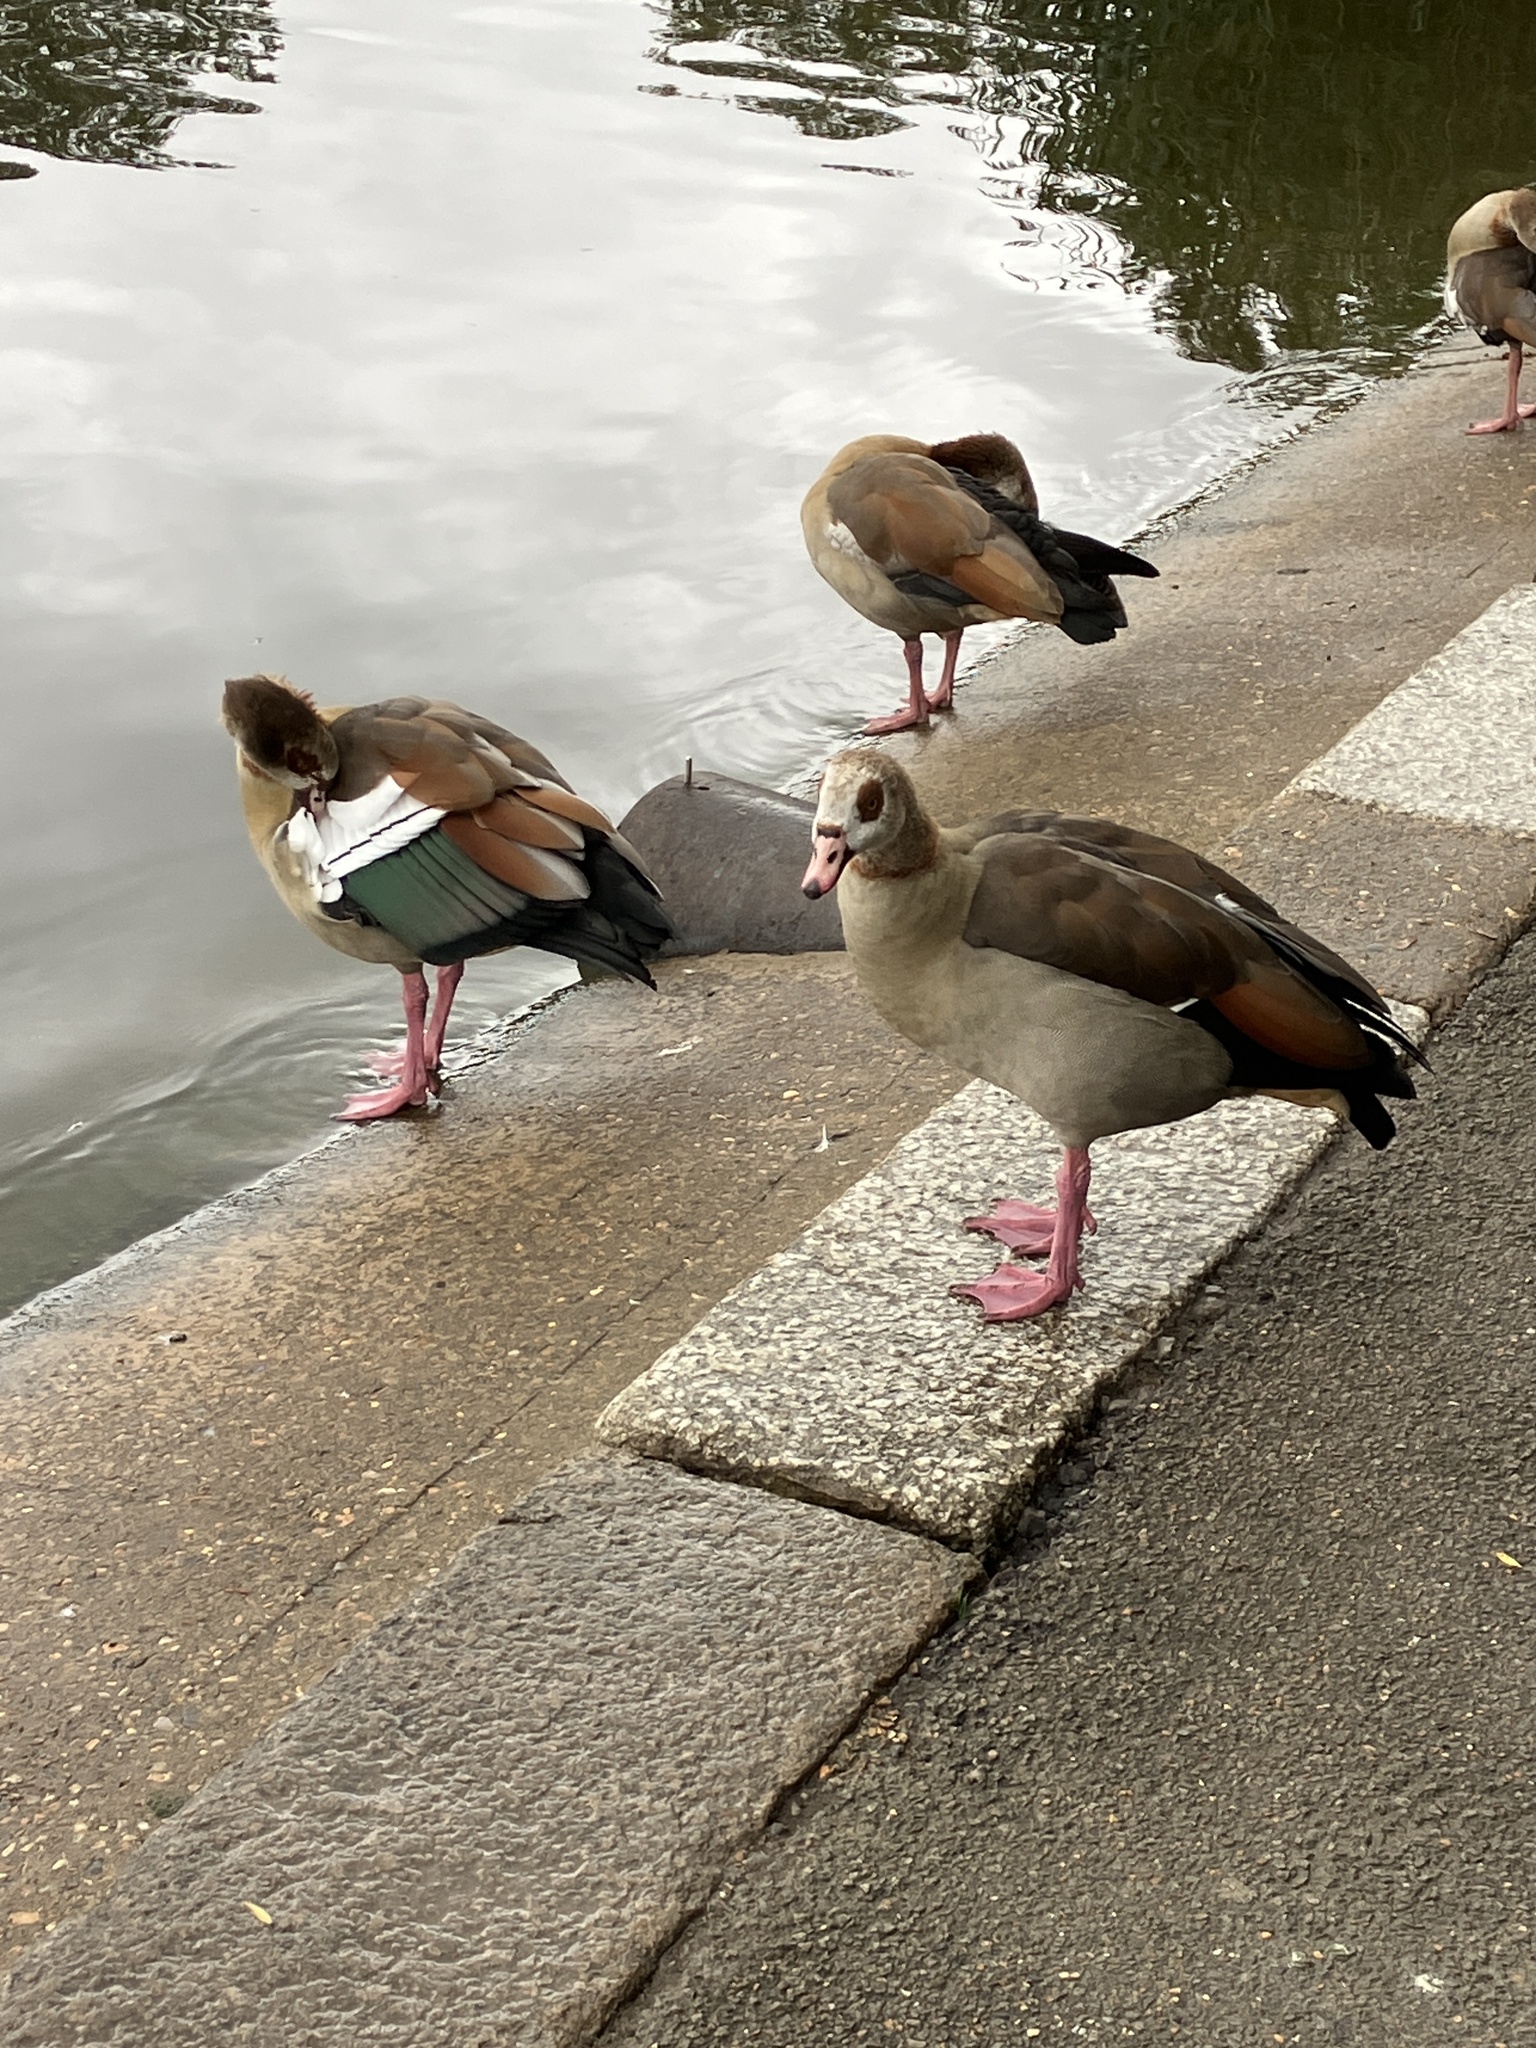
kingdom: Animalia
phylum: Chordata
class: Aves
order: Anseriformes
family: Anatidae
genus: Alopochen
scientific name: Alopochen aegyptiaca
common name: Egyptian goose
